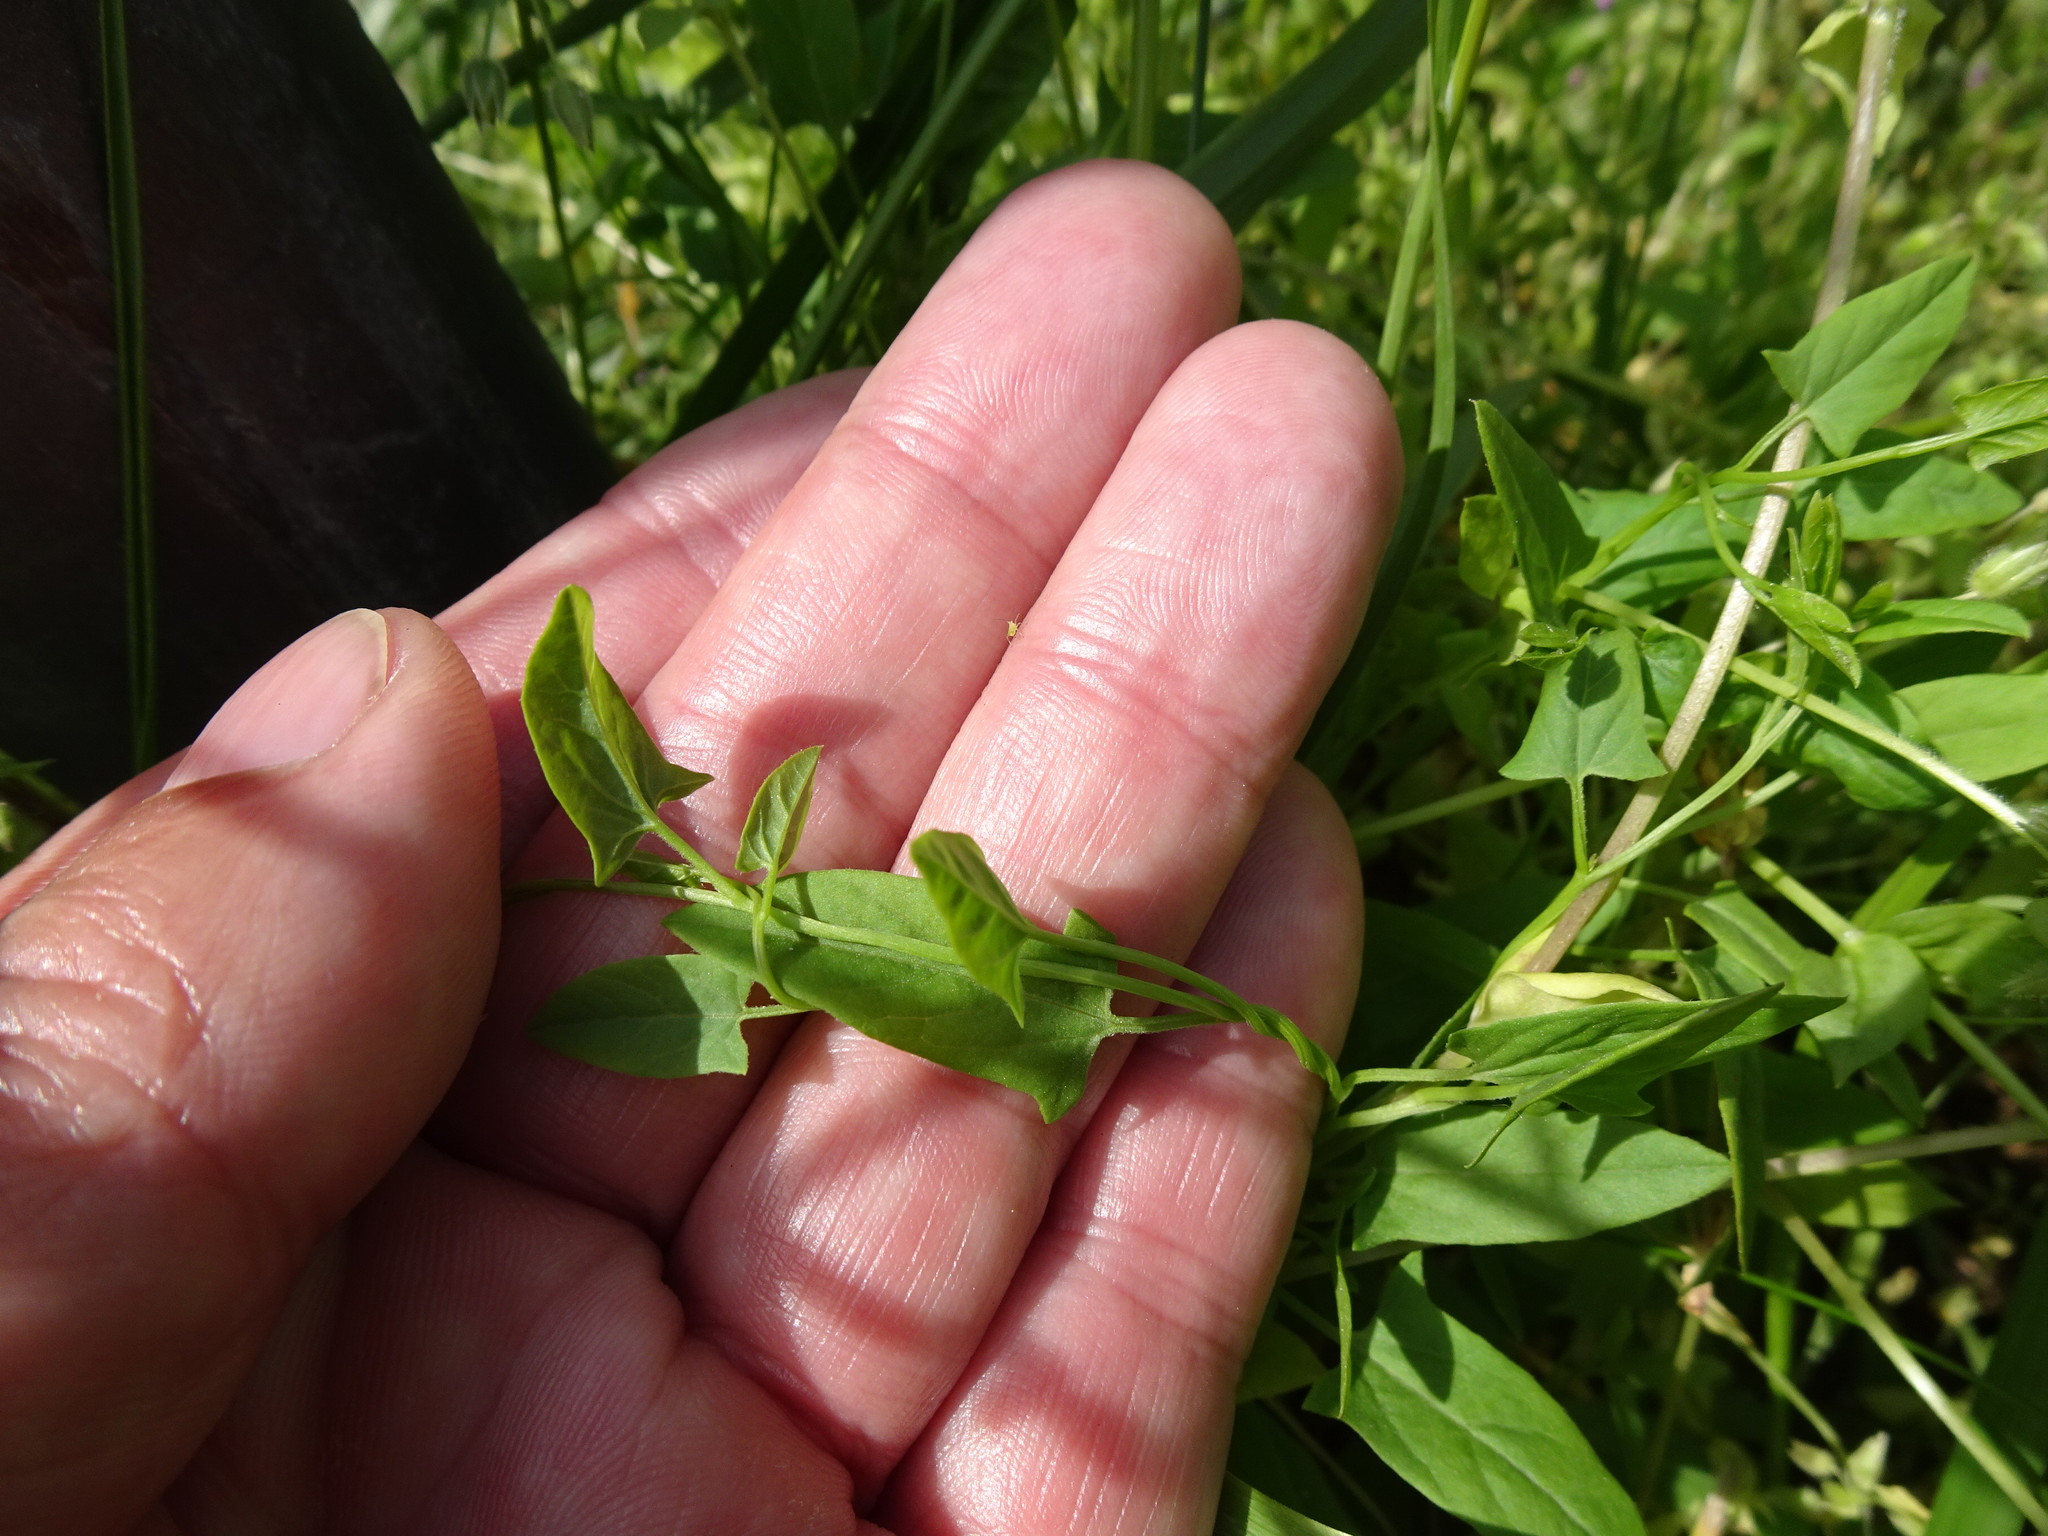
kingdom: Plantae
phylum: Tracheophyta
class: Magnoliopsida
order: Solanales
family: Convolvulaceae
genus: Convolvulus
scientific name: Convolvulus arvensis
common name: Field bindweed
